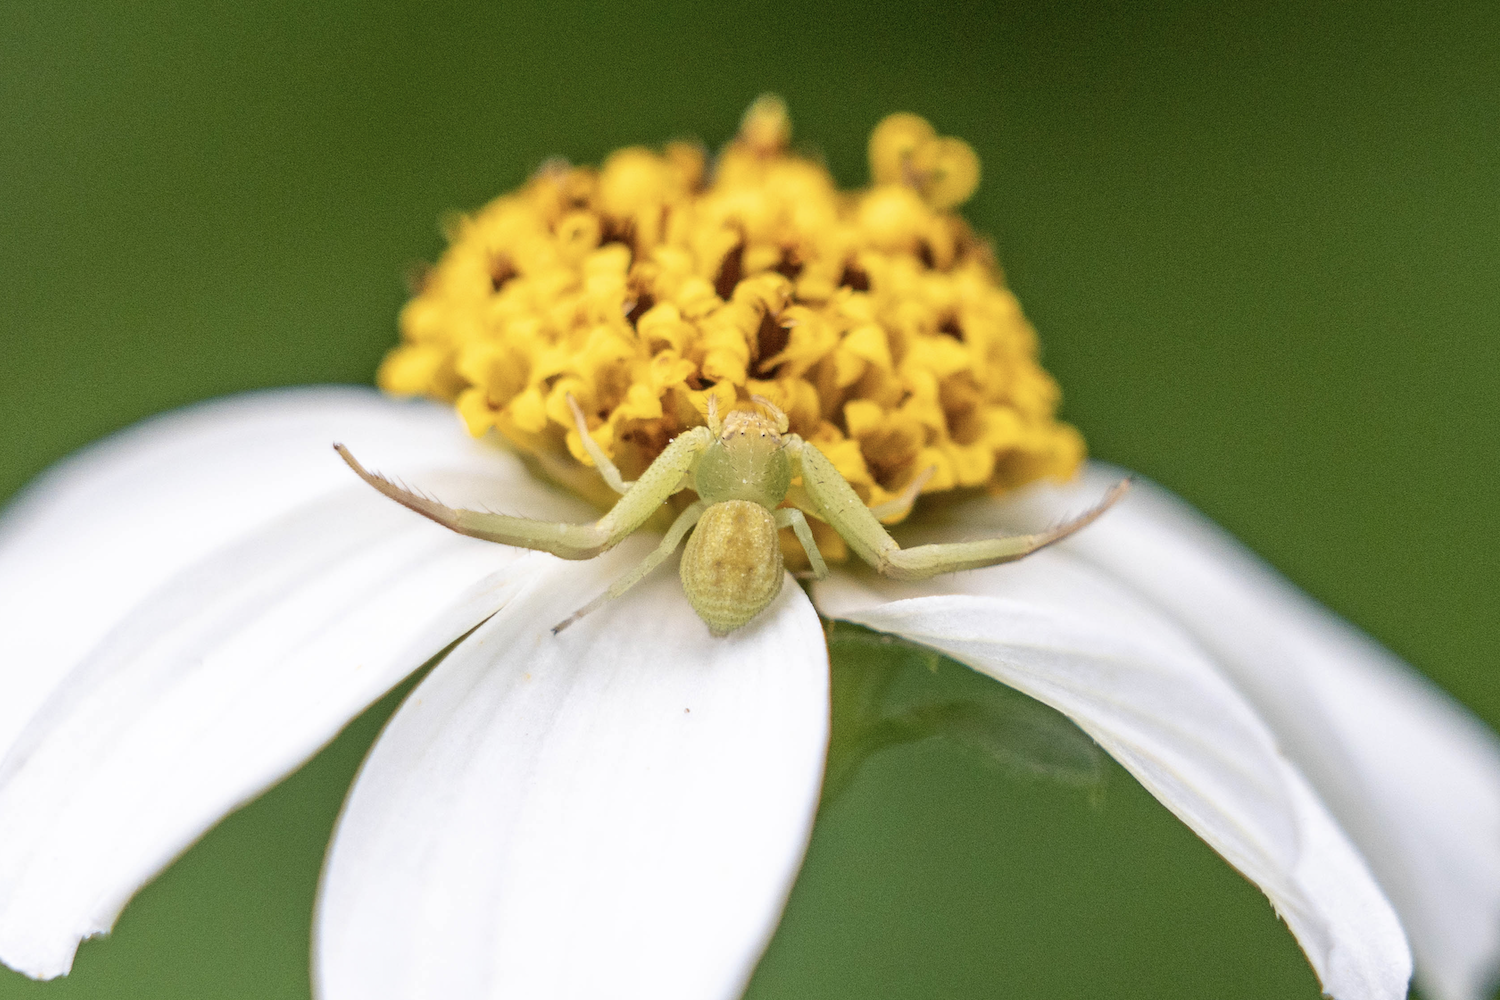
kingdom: Animalia
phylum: Arthropoda
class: Arachnida
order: Araneae
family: Thomisidae
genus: Ebrechtella
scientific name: Ebrechtella pseudovatia
